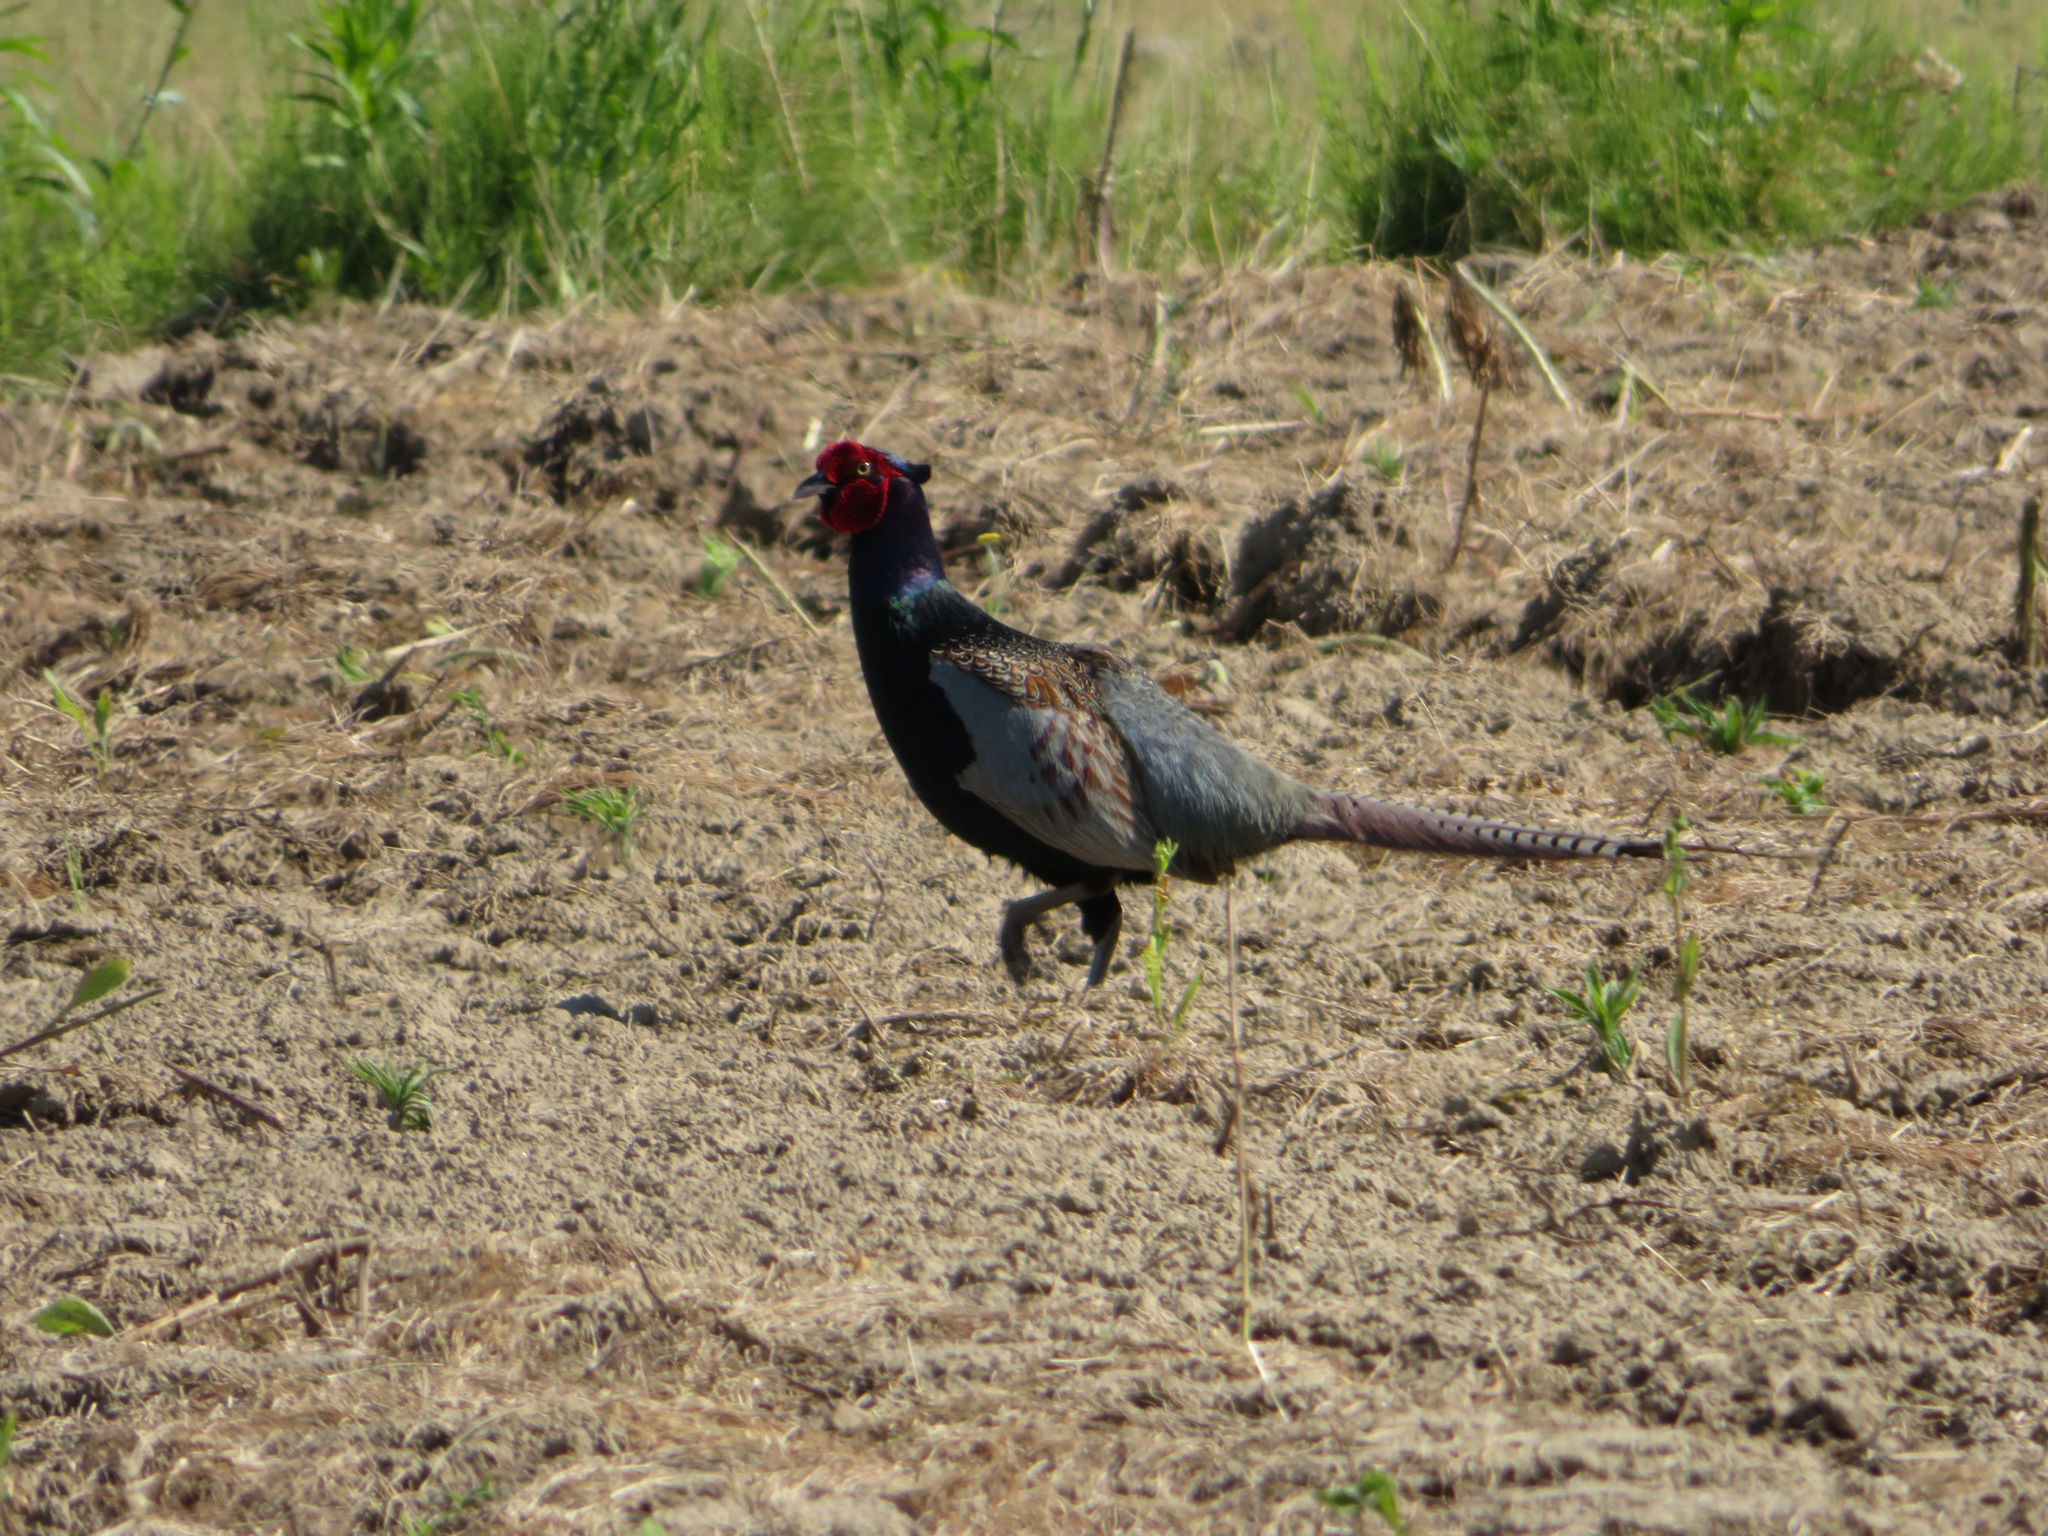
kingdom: Animalia
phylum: Chordata
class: Aves
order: Galliformes
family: Phasianidae
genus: Phasianus
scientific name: Phasianus versicolor
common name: Green pheasant
